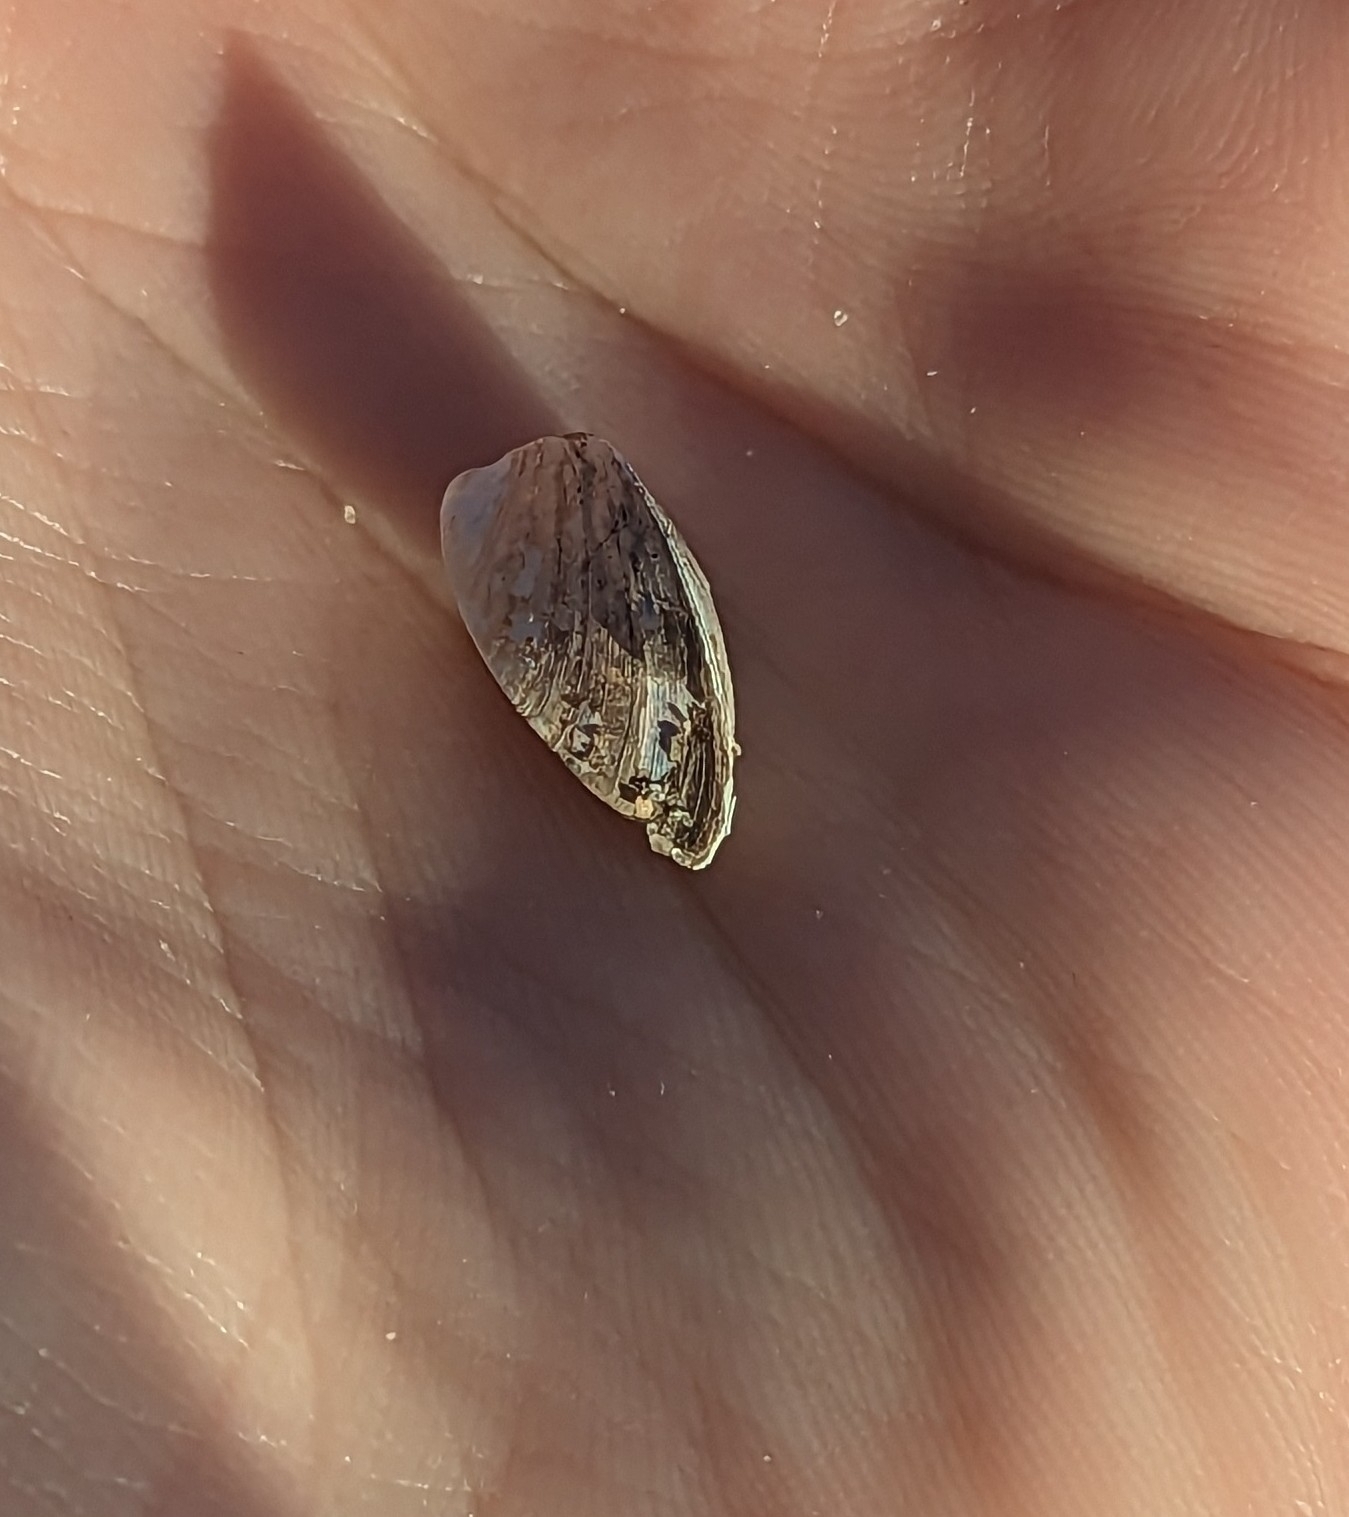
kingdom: Animalia
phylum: Mollusca
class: Bivalvia
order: Myida
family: Dreissenidae
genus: Dreissena
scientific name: Dreissena polymorpha
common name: Zebra mussel
